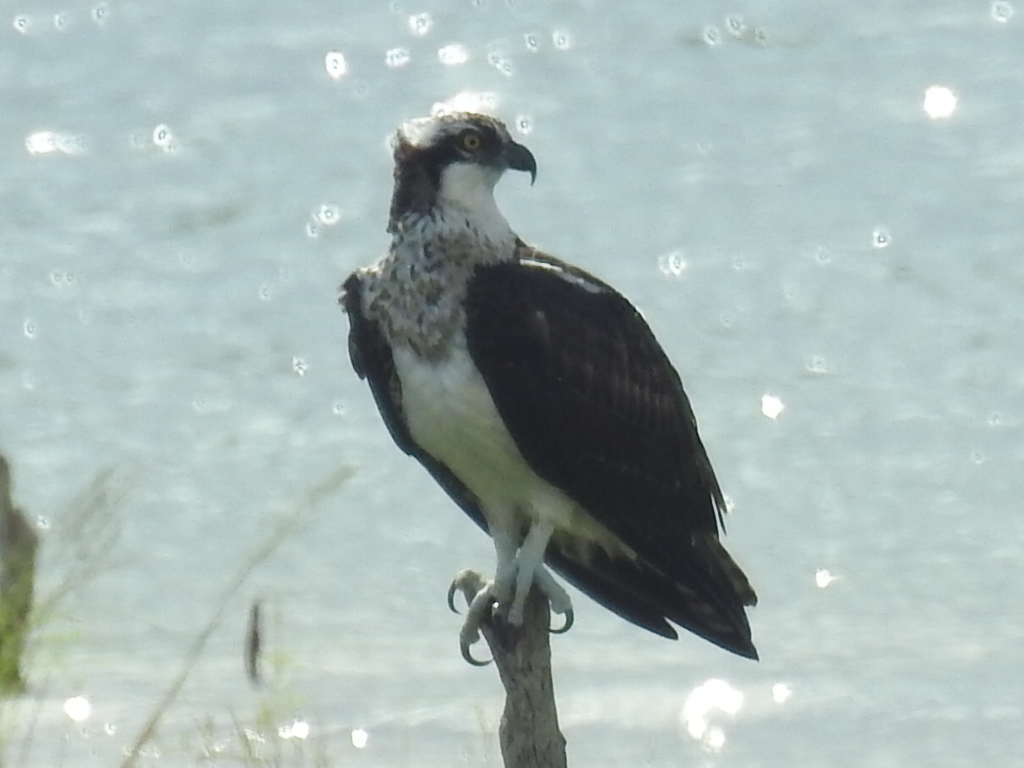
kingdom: Animalia
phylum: Chordata
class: Aves
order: Accipitriformes
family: Pandionidae
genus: Pandion
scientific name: Pandion haliaetus
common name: Osprey
